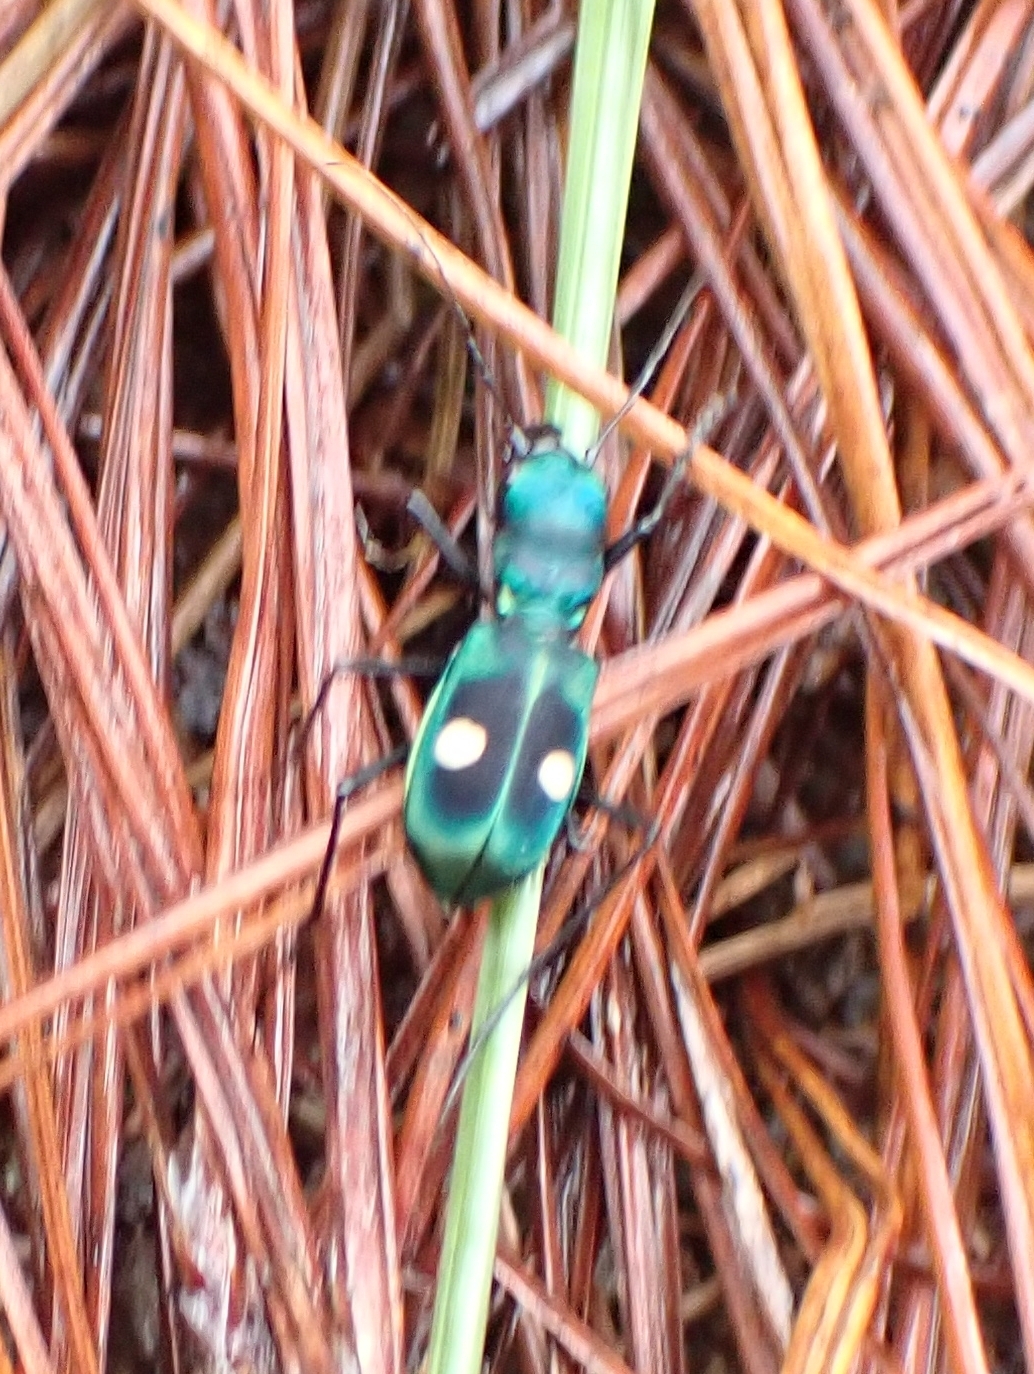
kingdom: Animalia
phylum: Arthropoda
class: Insecta
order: Coleoptera
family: Carabidae
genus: Pseudoxycheila
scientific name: Pseudoxycheila tarsalis
